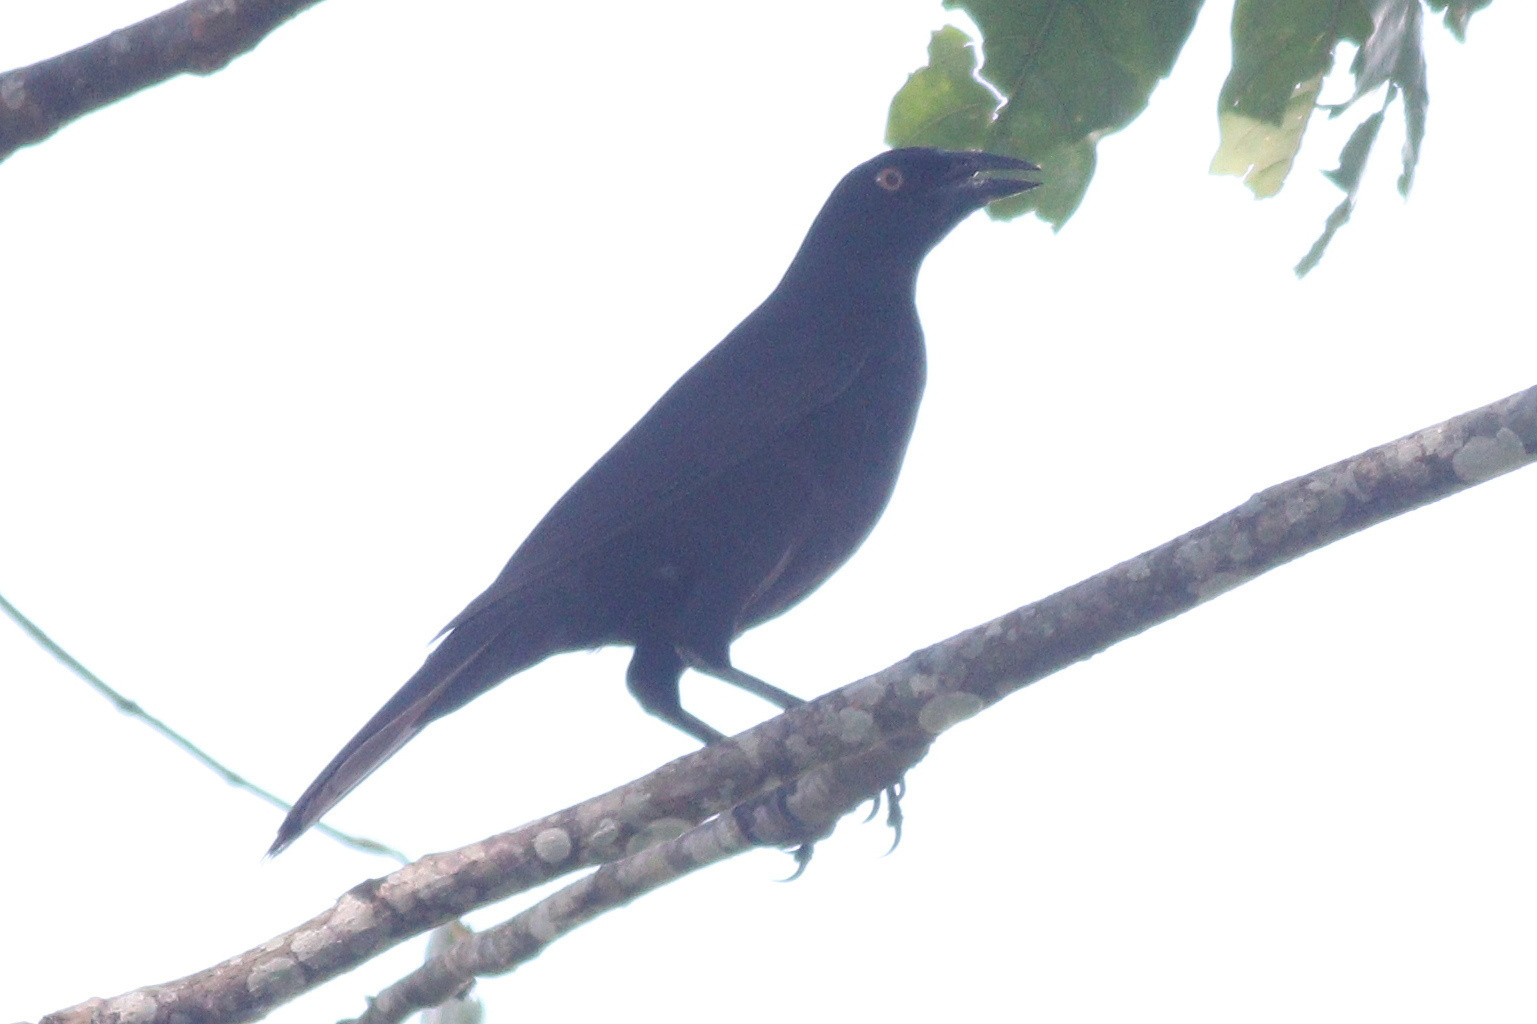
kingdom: Animalia
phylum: Chordata
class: Aves
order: Passeriformes
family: Icteridae
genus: Molothrus
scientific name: Molothrus oryzivorus
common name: Giant cowbird
